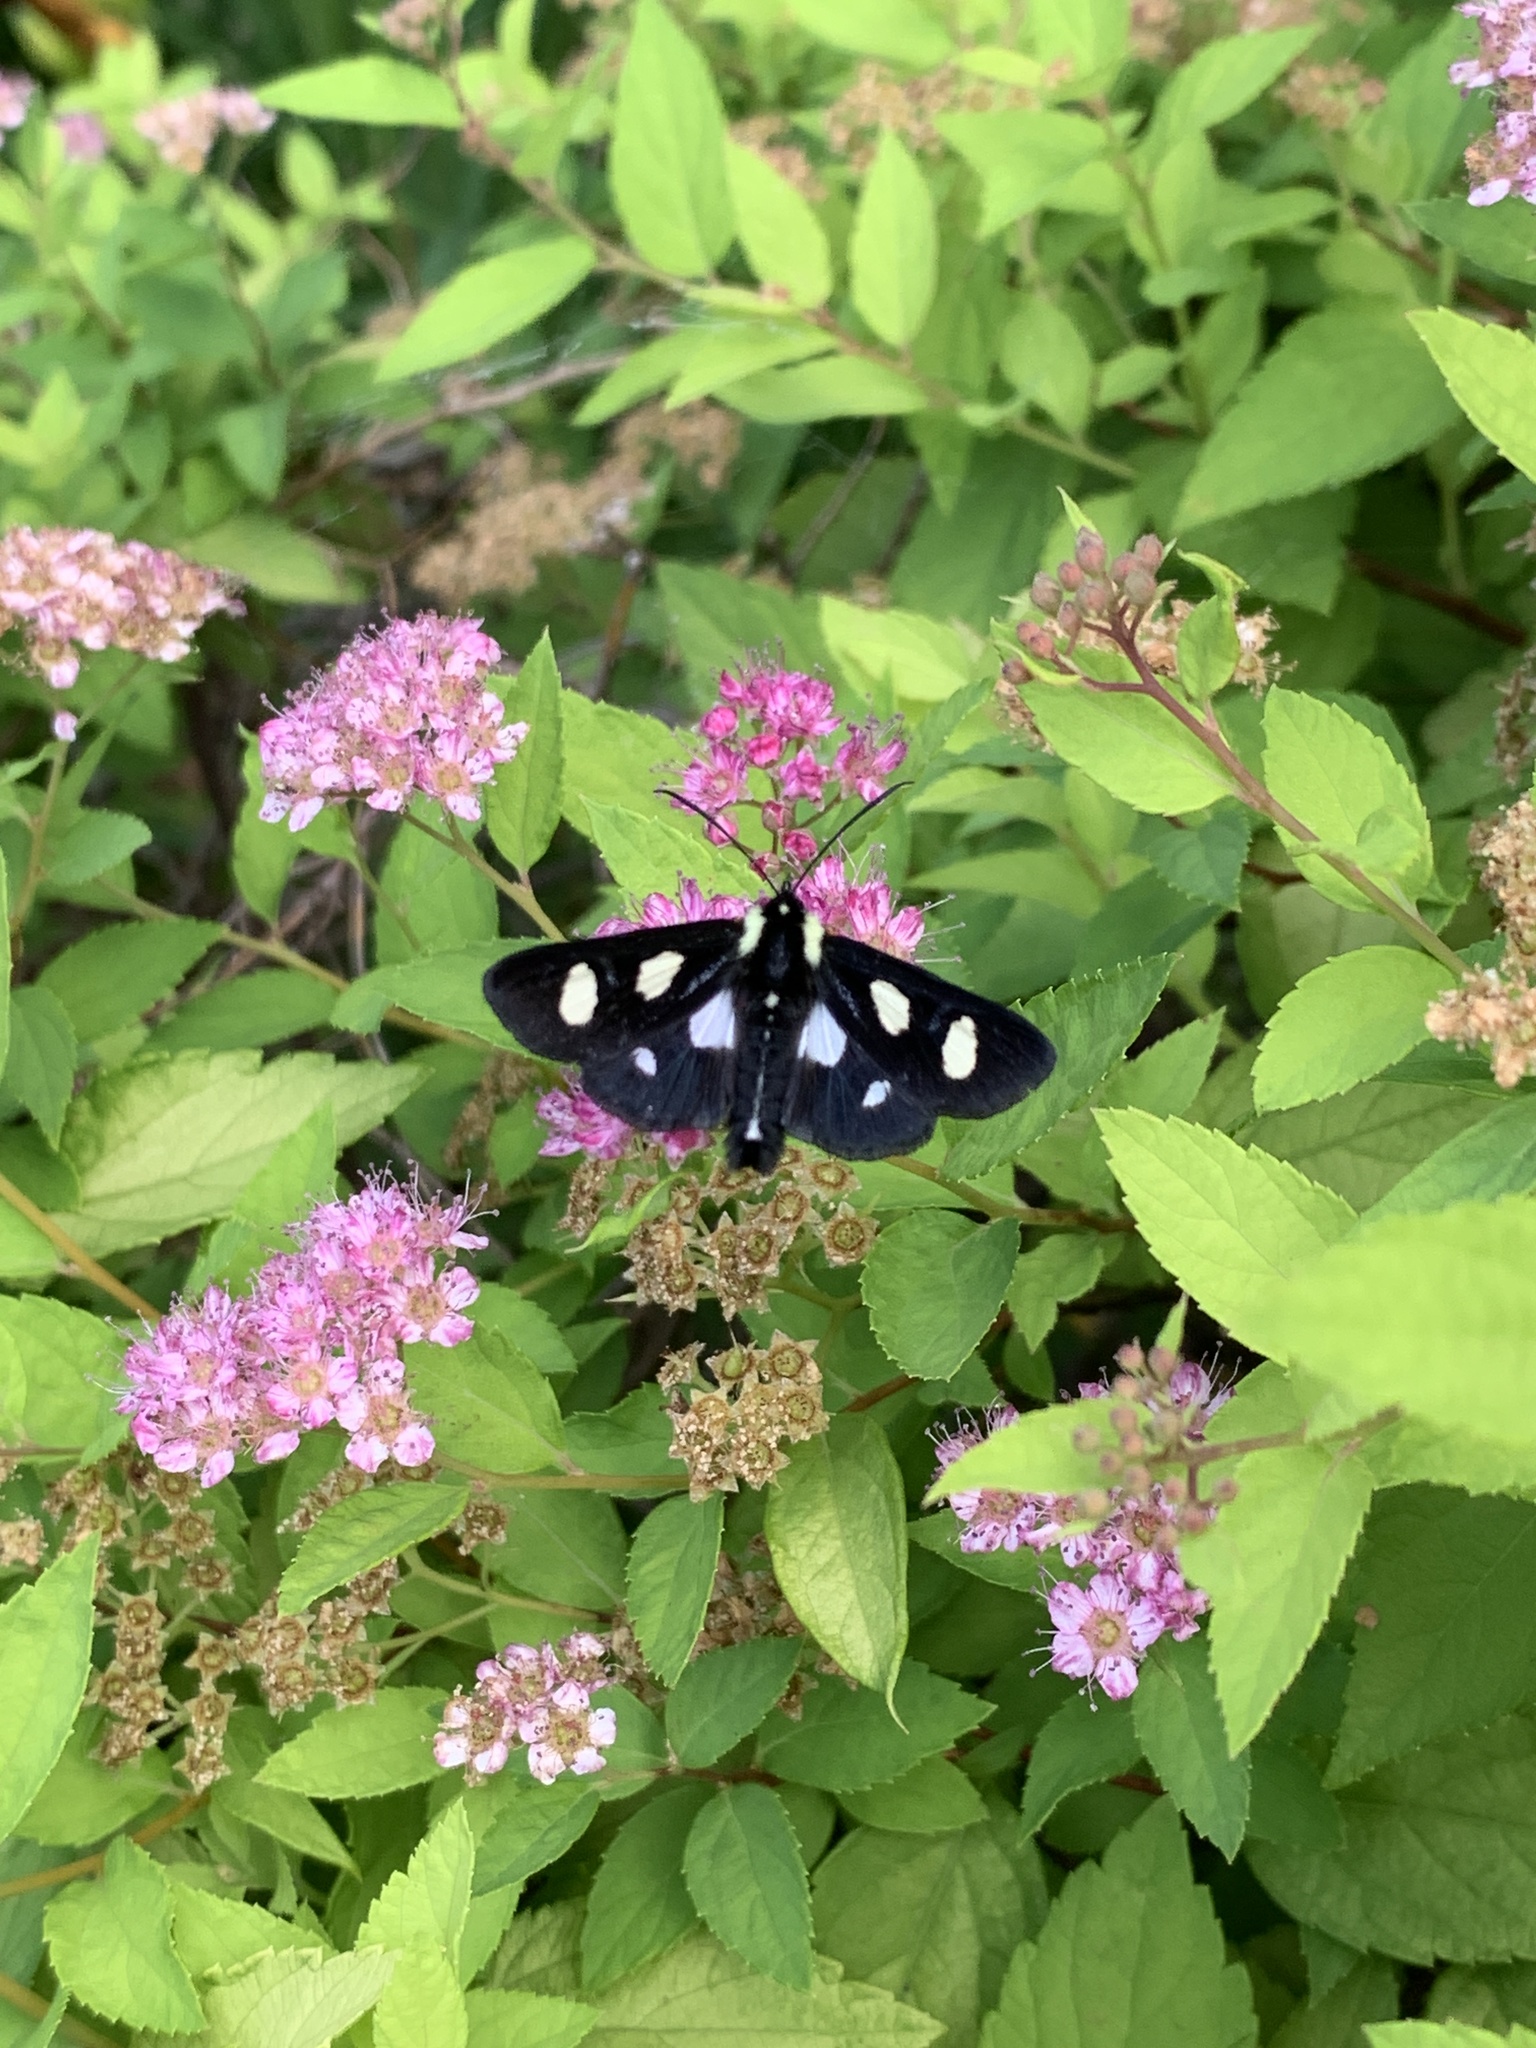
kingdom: Animalia
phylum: Arthropoda
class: Insecta
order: Lepidoptera
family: Noctuidae
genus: Alypia
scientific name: Alypia octomaculata
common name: Eight-spotted forester
